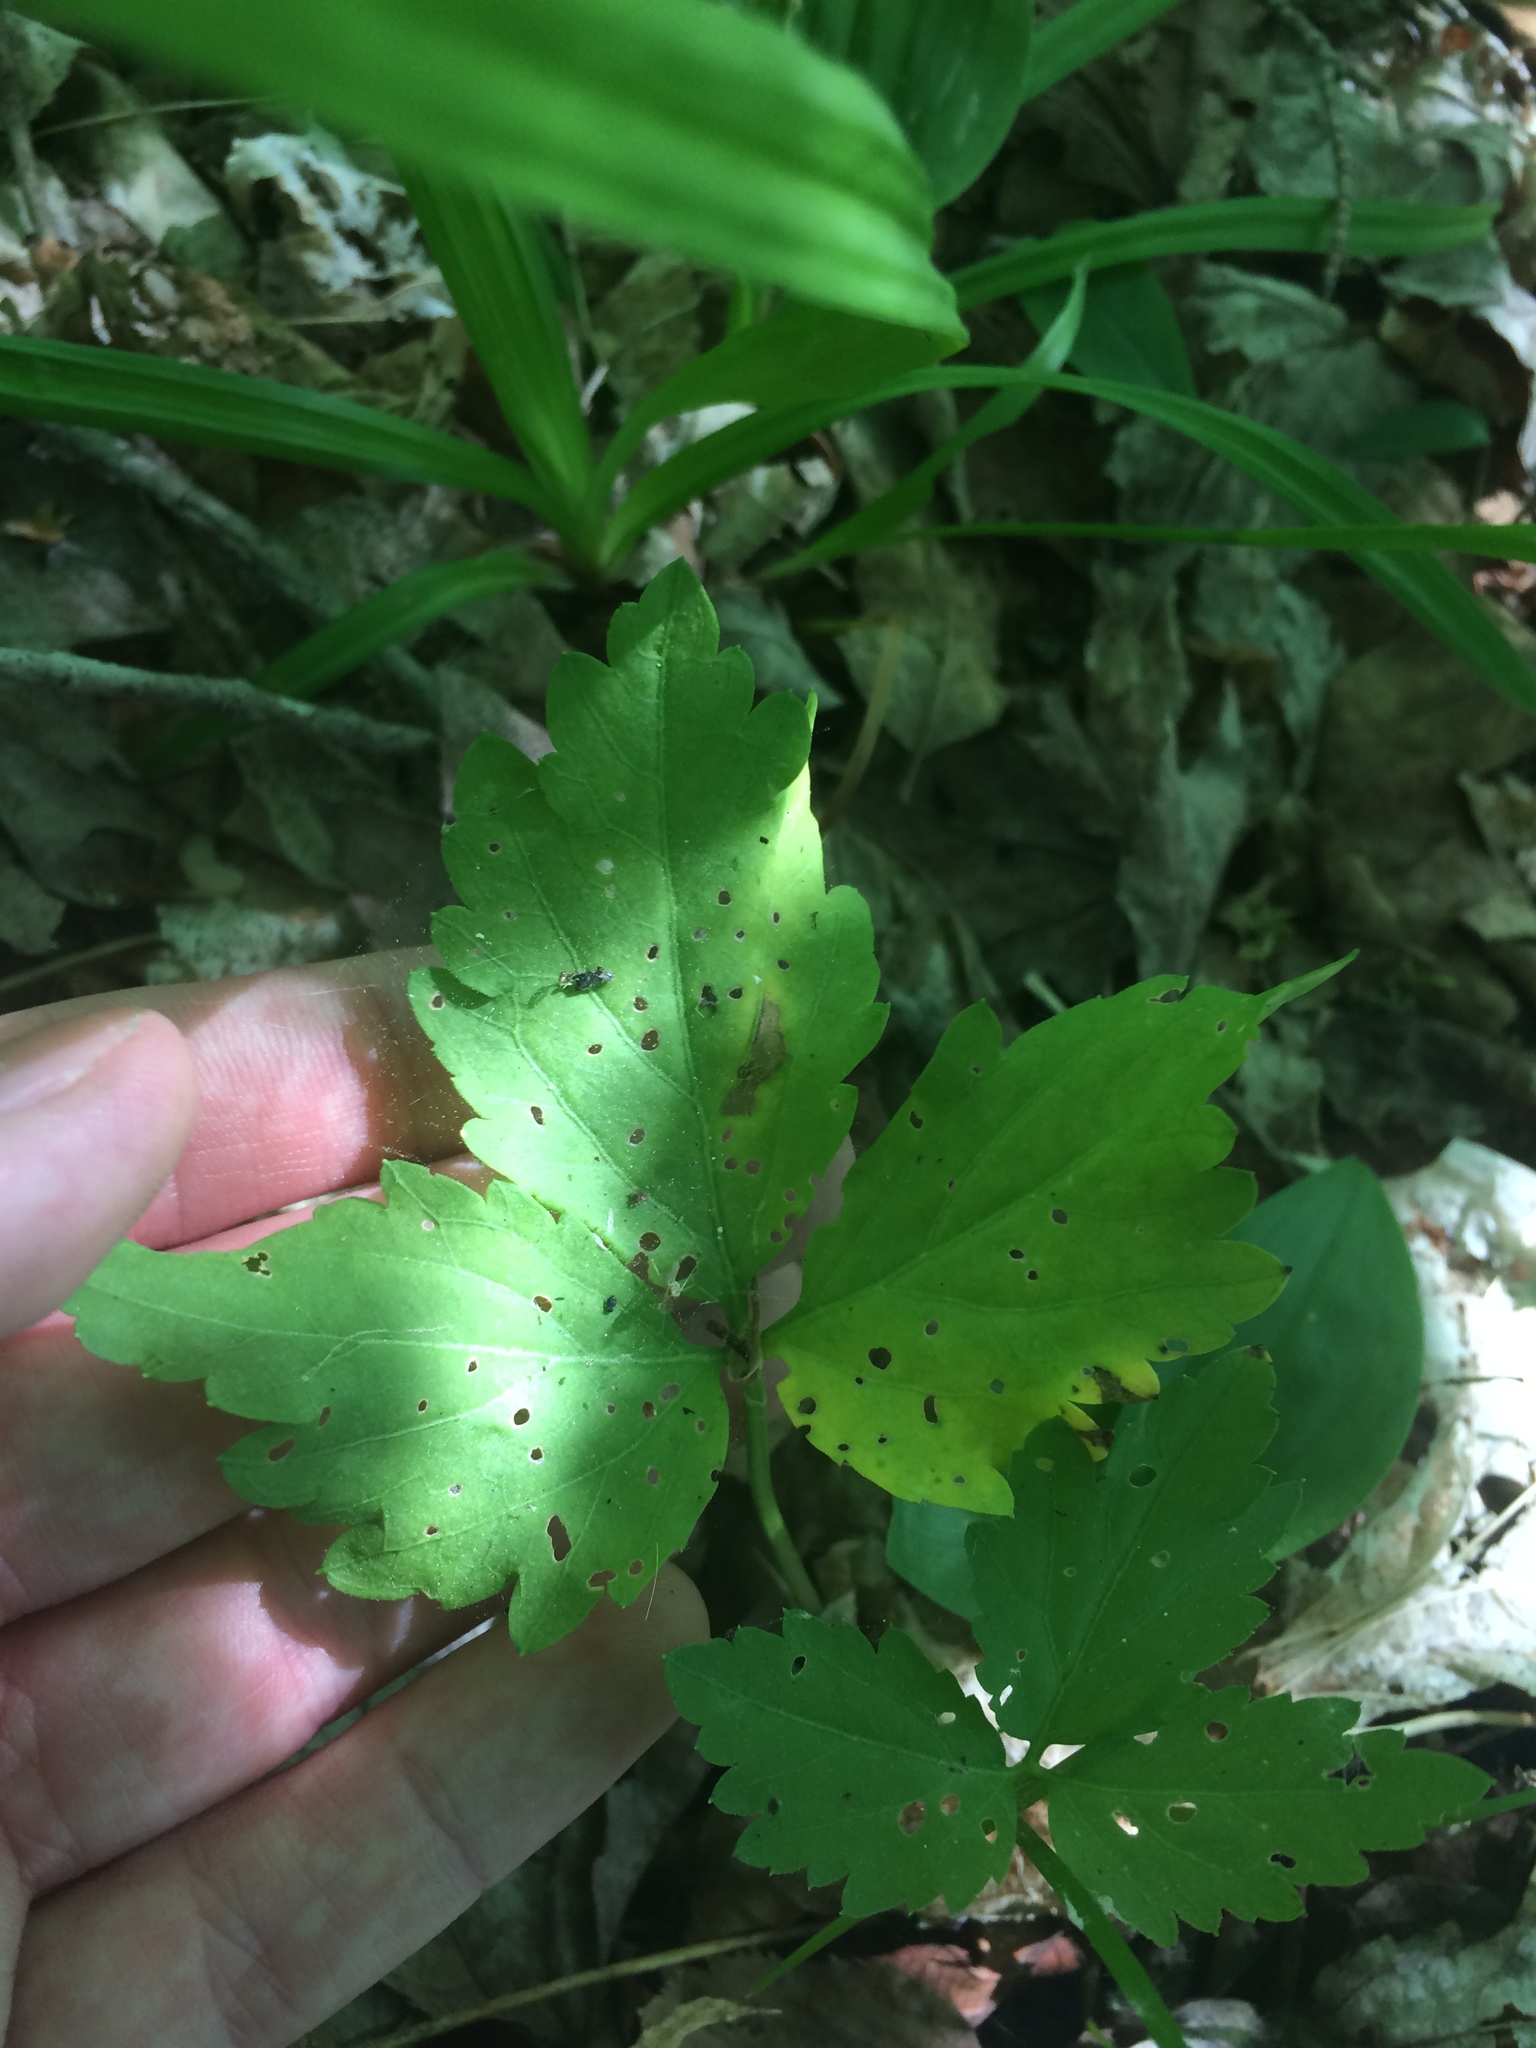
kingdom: Plantae
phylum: Tracheophyta
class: Magnoliopsida
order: Brassicales
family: Brassicaceae
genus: Cardamine
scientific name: Cardamine diphylla
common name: Broad-leaved toothwort
